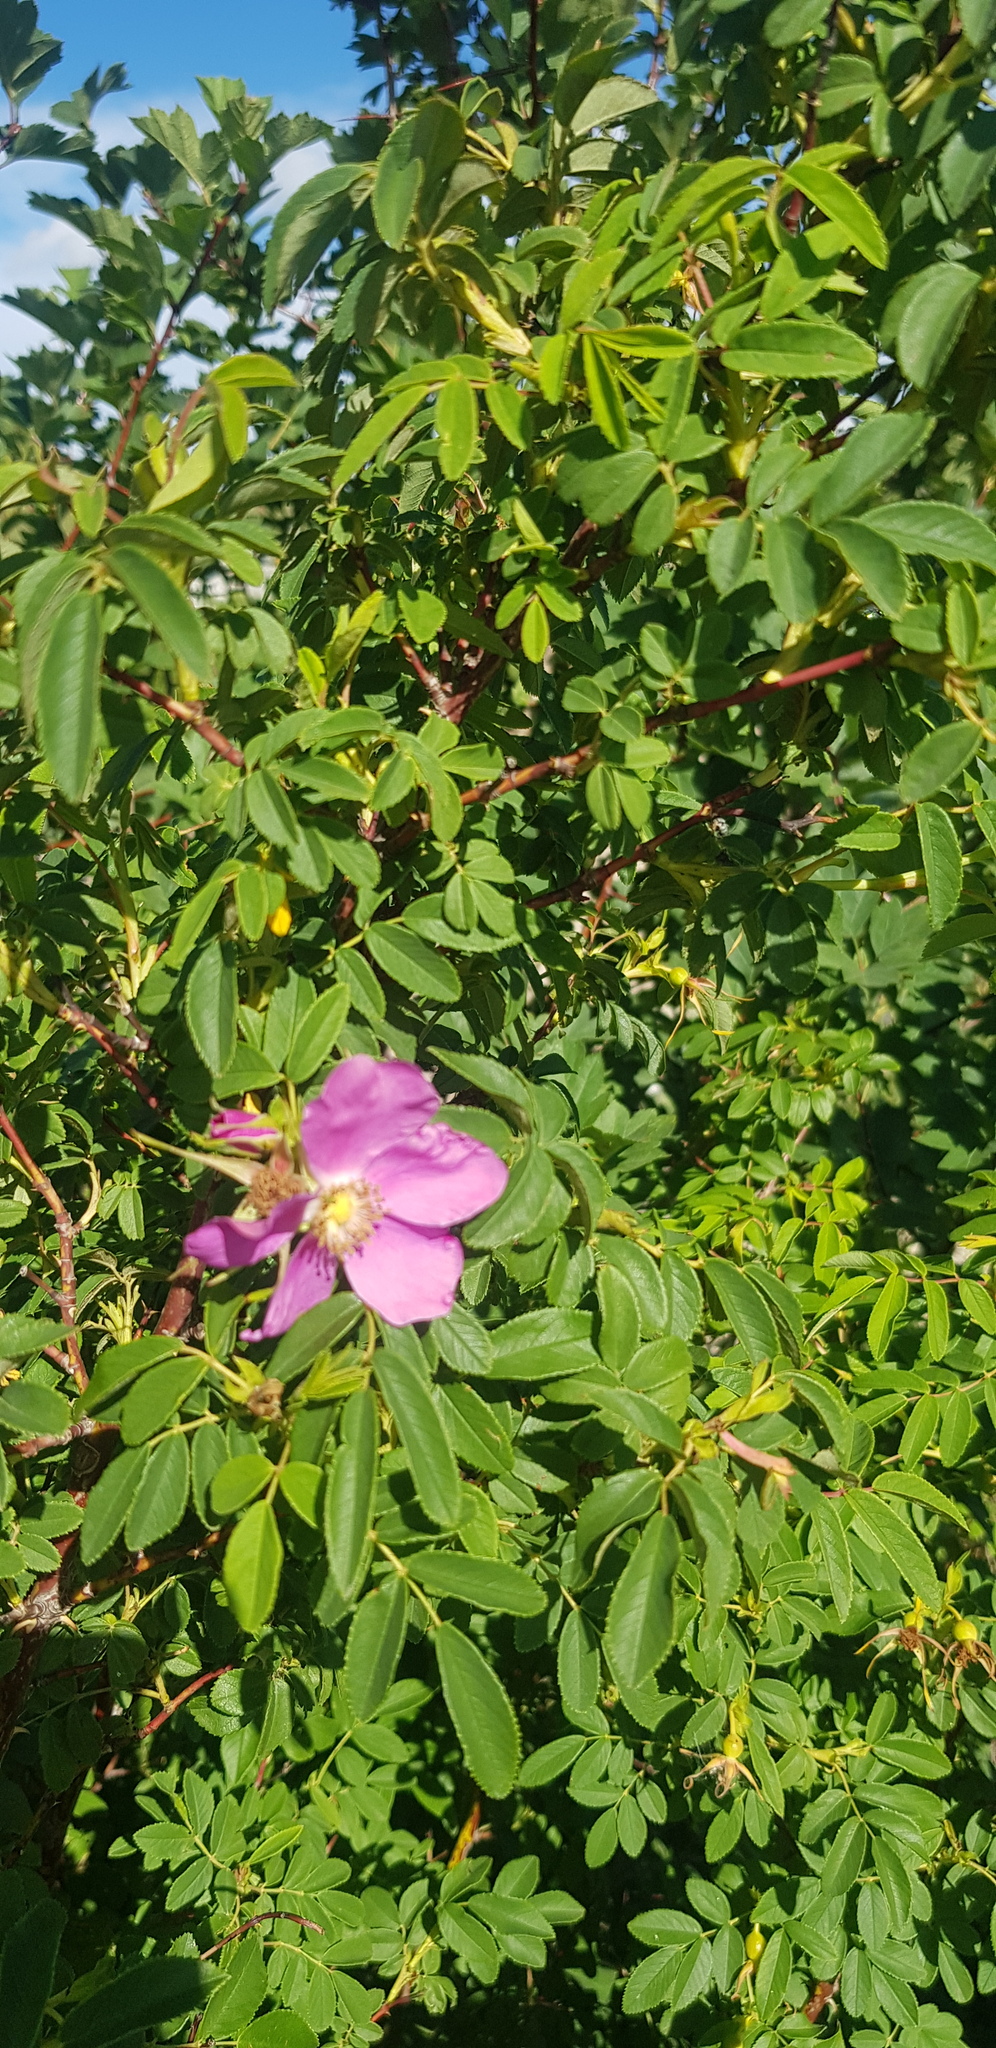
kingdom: Plantae
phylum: Tracheophyta
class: Magnoliopsida
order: Rosales
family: Rosaceae
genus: Rosa
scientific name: Rosa acicularis
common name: Prickly rose
